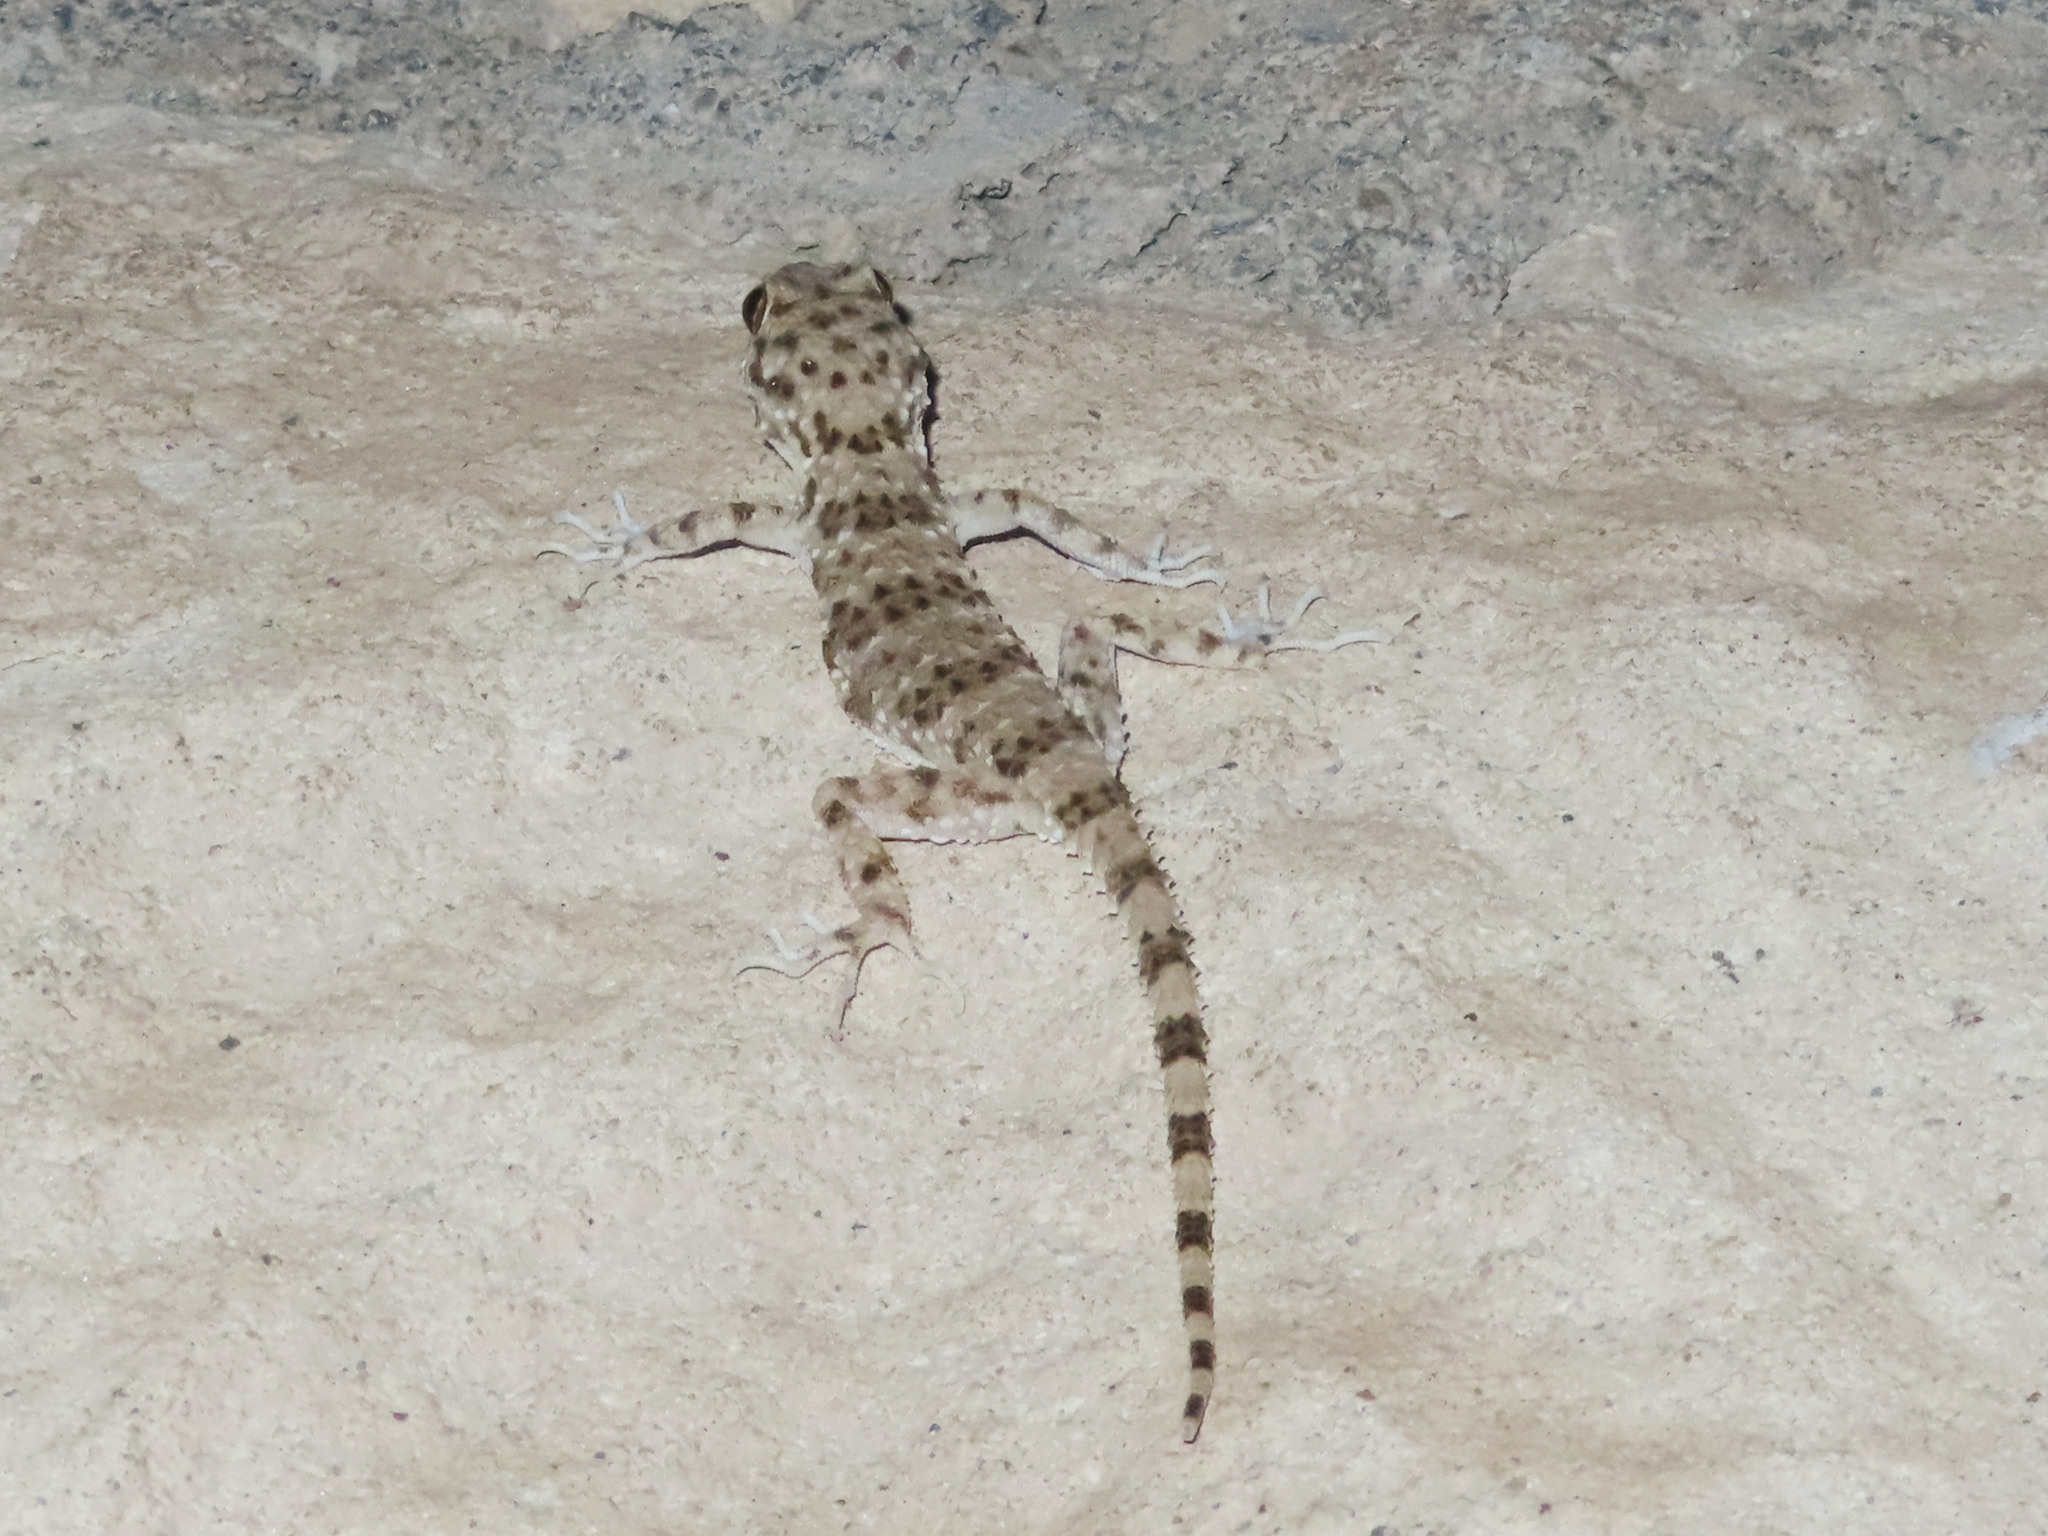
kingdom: Animalia
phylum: Chordata
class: Squamata
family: Gekkonidae
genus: Tenuidactylus
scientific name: Tenuidactylus caspius
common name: Caspian bent-toed gecko
